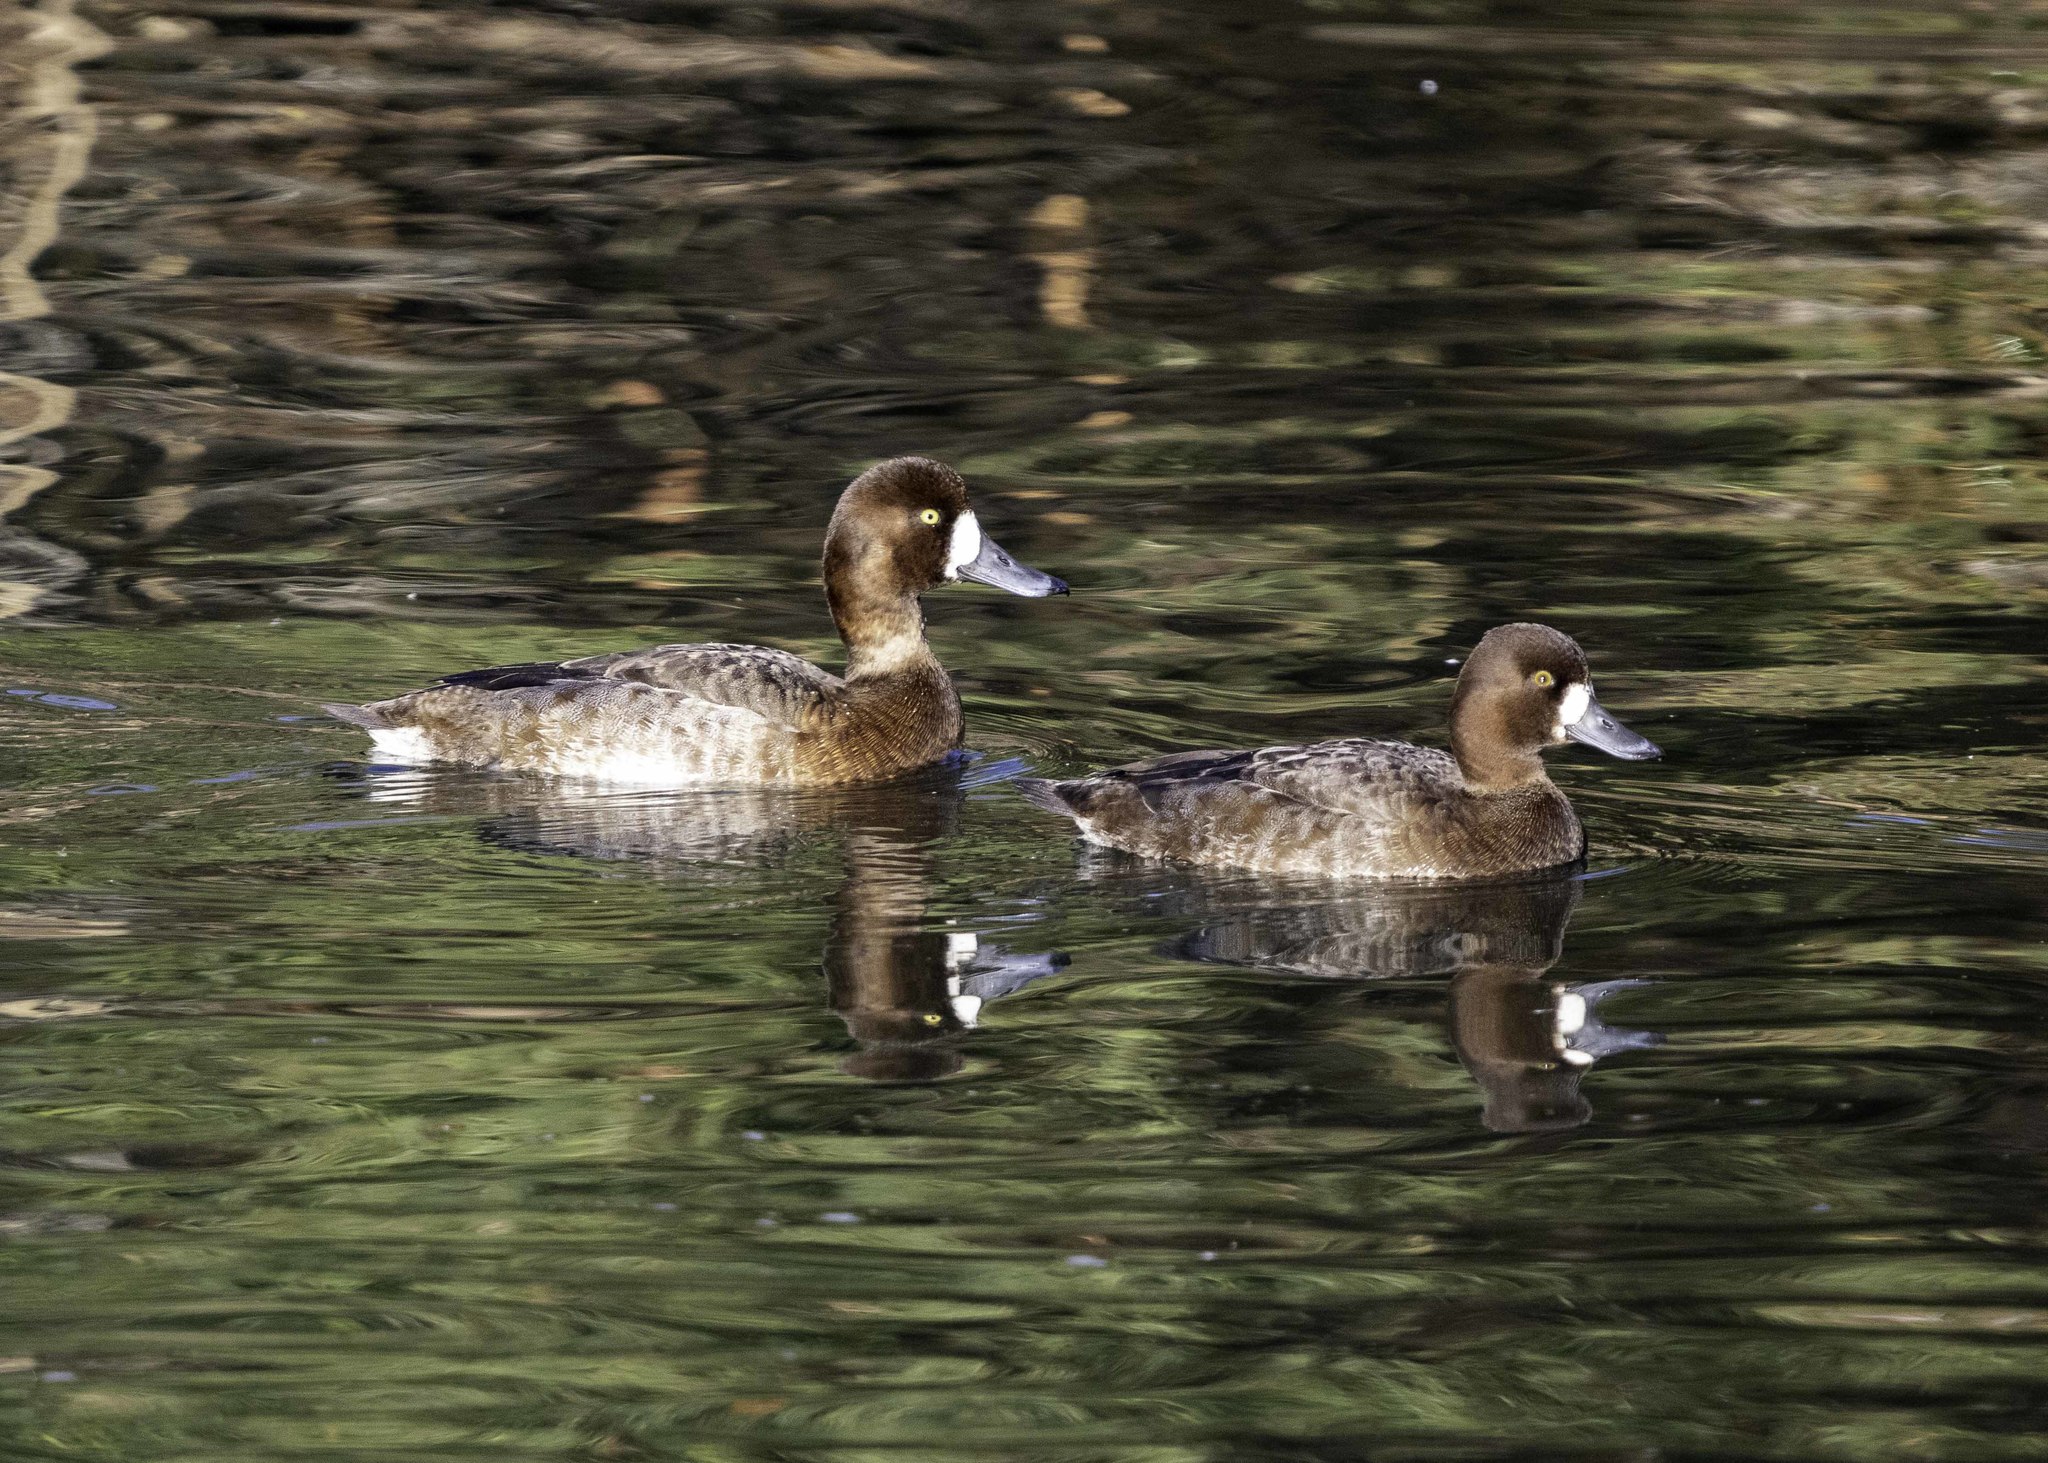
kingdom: Animalia
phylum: Chordata
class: Aves
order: Anseriformes
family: Anatidae
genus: Aythya
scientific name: Aythya affinis
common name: Lesser scaup
